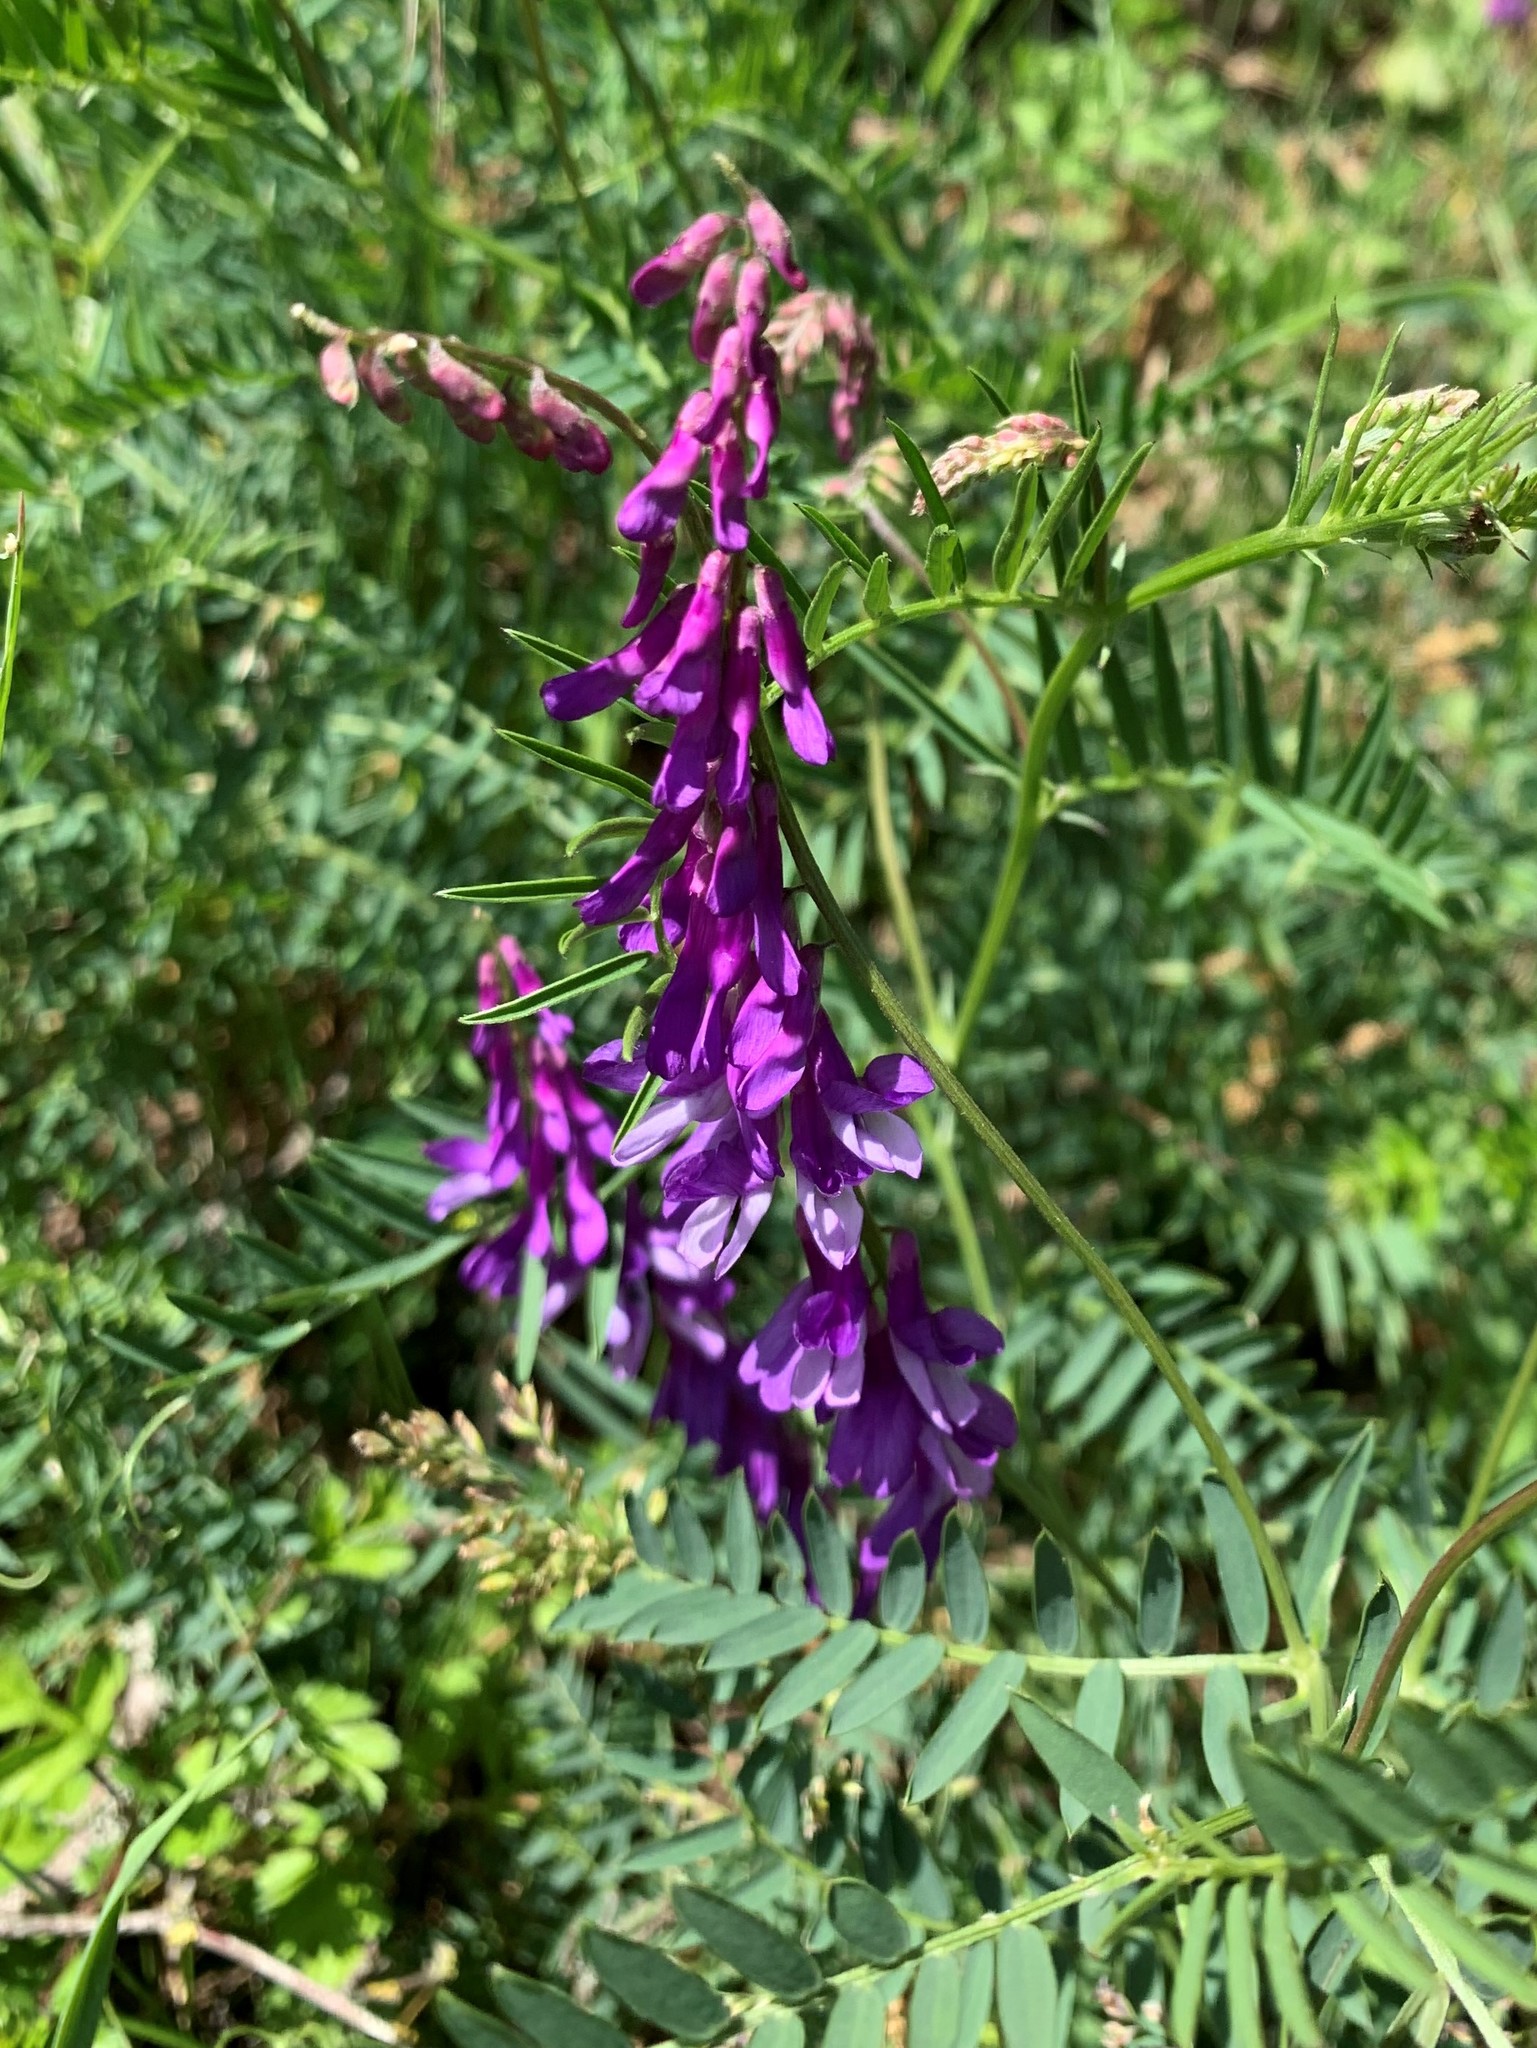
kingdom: Plantae
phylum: Tracheophyta
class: Magnoliopsida
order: Fabales
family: Fabaceae
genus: Vicia
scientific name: Vicia cracca
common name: Bird vetch
